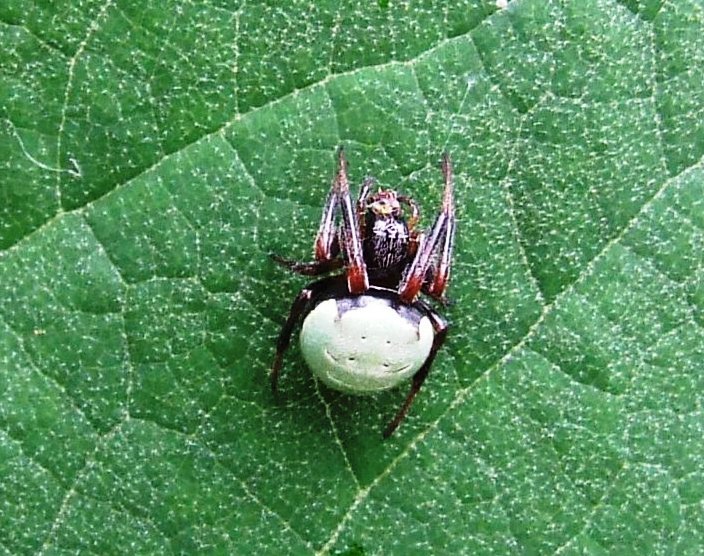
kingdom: Animalia
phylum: Arthropoda
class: Arachnida
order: Araneae
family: Araneidae
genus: Araneus
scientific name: Araneus apricus
